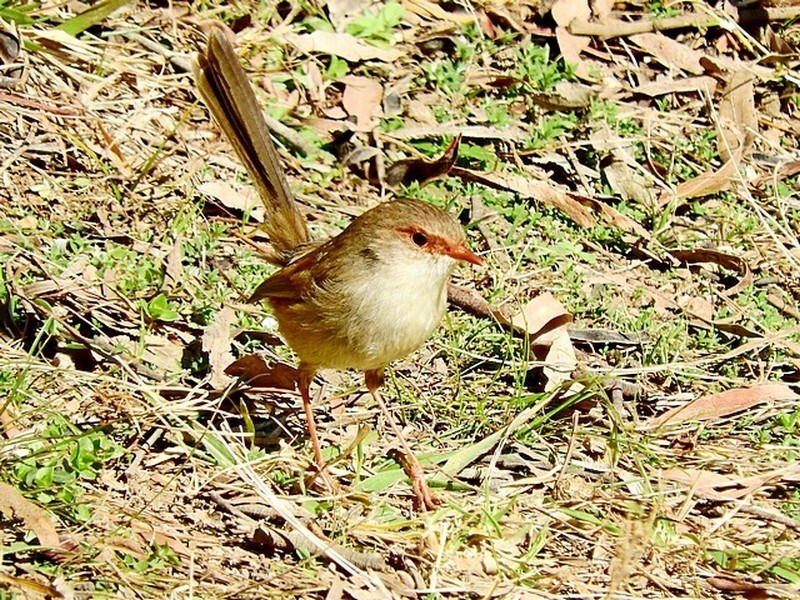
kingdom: Animalia
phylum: Chordata
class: Aves
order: Passeriformes
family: Maluridae
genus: Malurus
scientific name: Malurus cyaneus
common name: Superb fairywren
